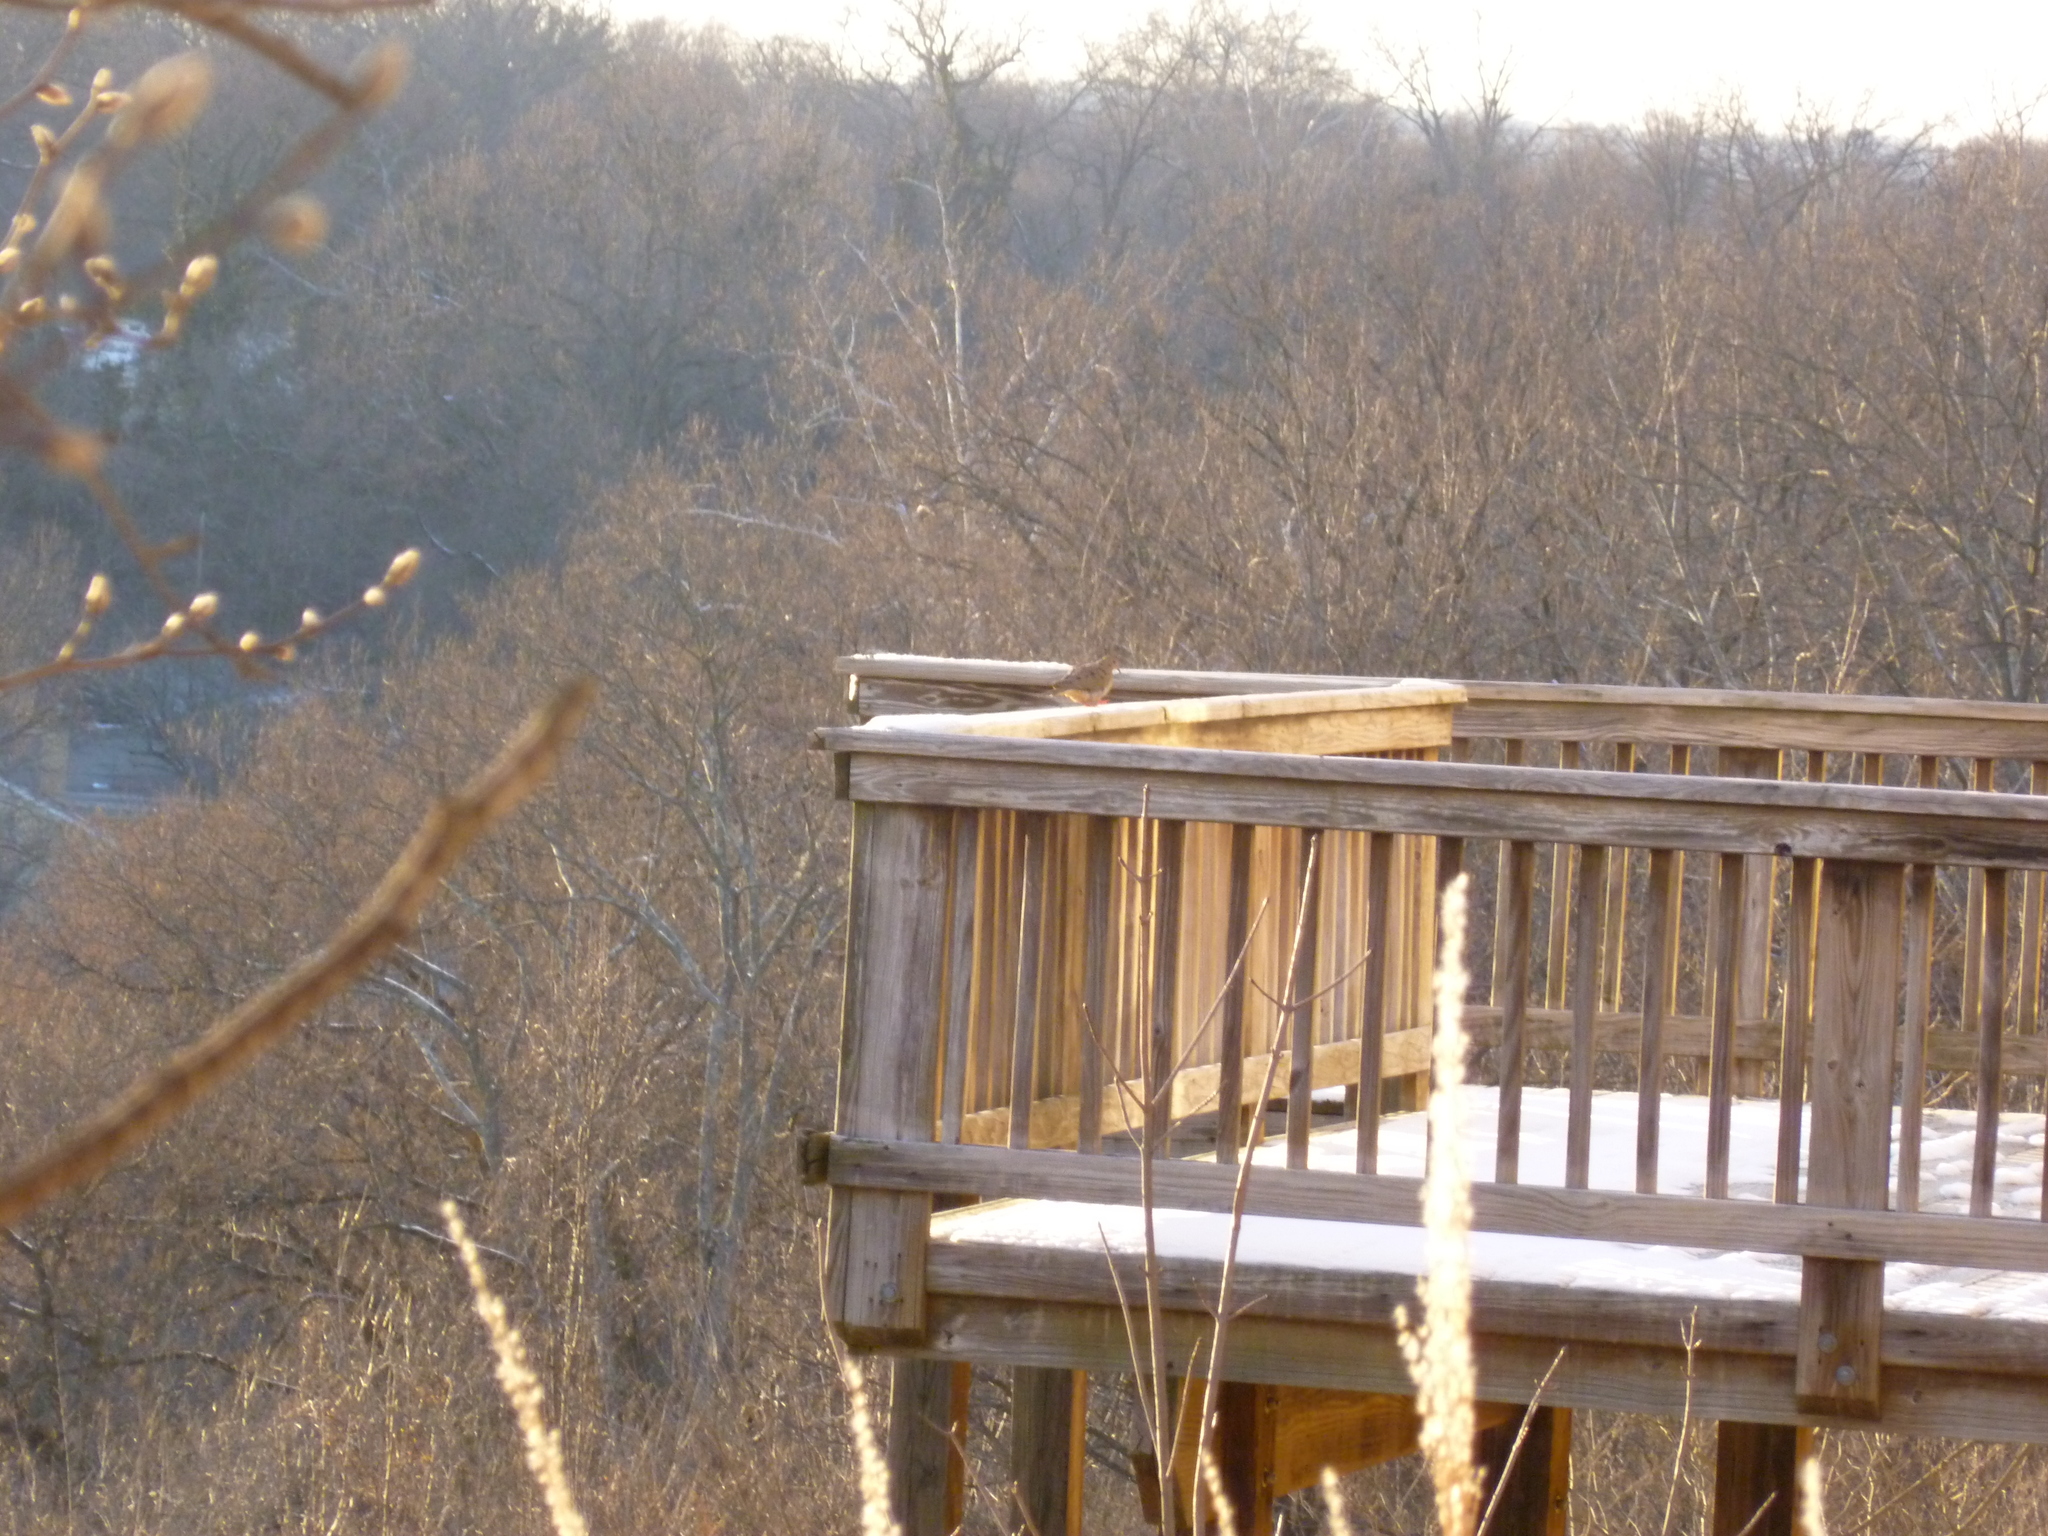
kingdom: Animalia
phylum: Chordata
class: Aves
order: Columbiformes
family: Columbidae
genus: Zenaida
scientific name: Zenaida macroura
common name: Mourning dove
